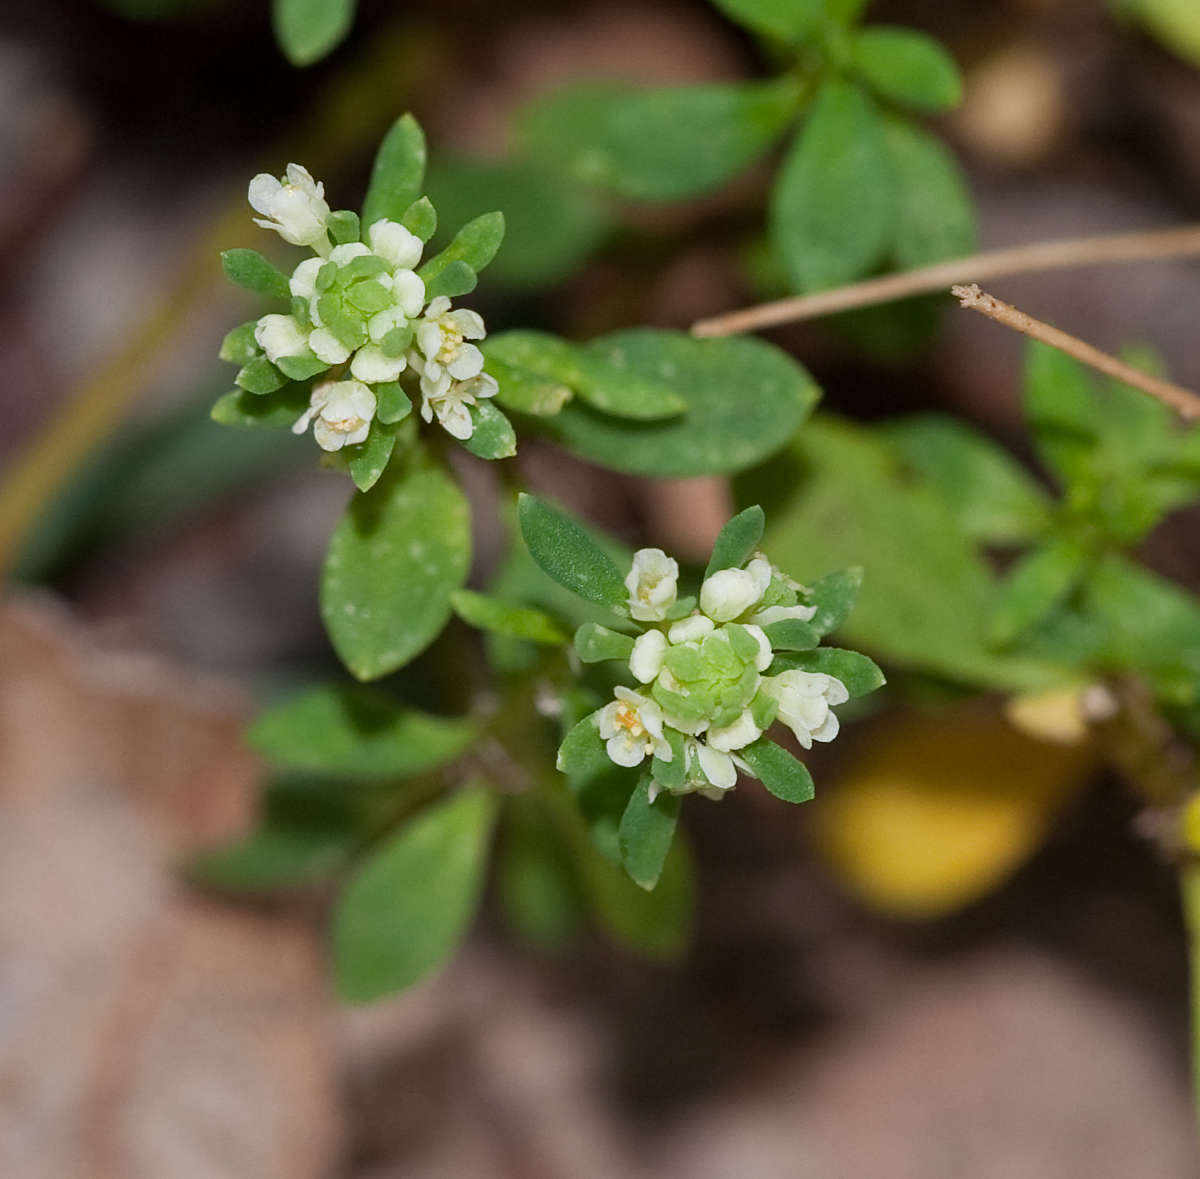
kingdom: Plantae
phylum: Tracheophyta
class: Magnoliopsida
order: Malpighiales
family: Phyllanthaceae
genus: Poranthera
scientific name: Poranthera microphylla
